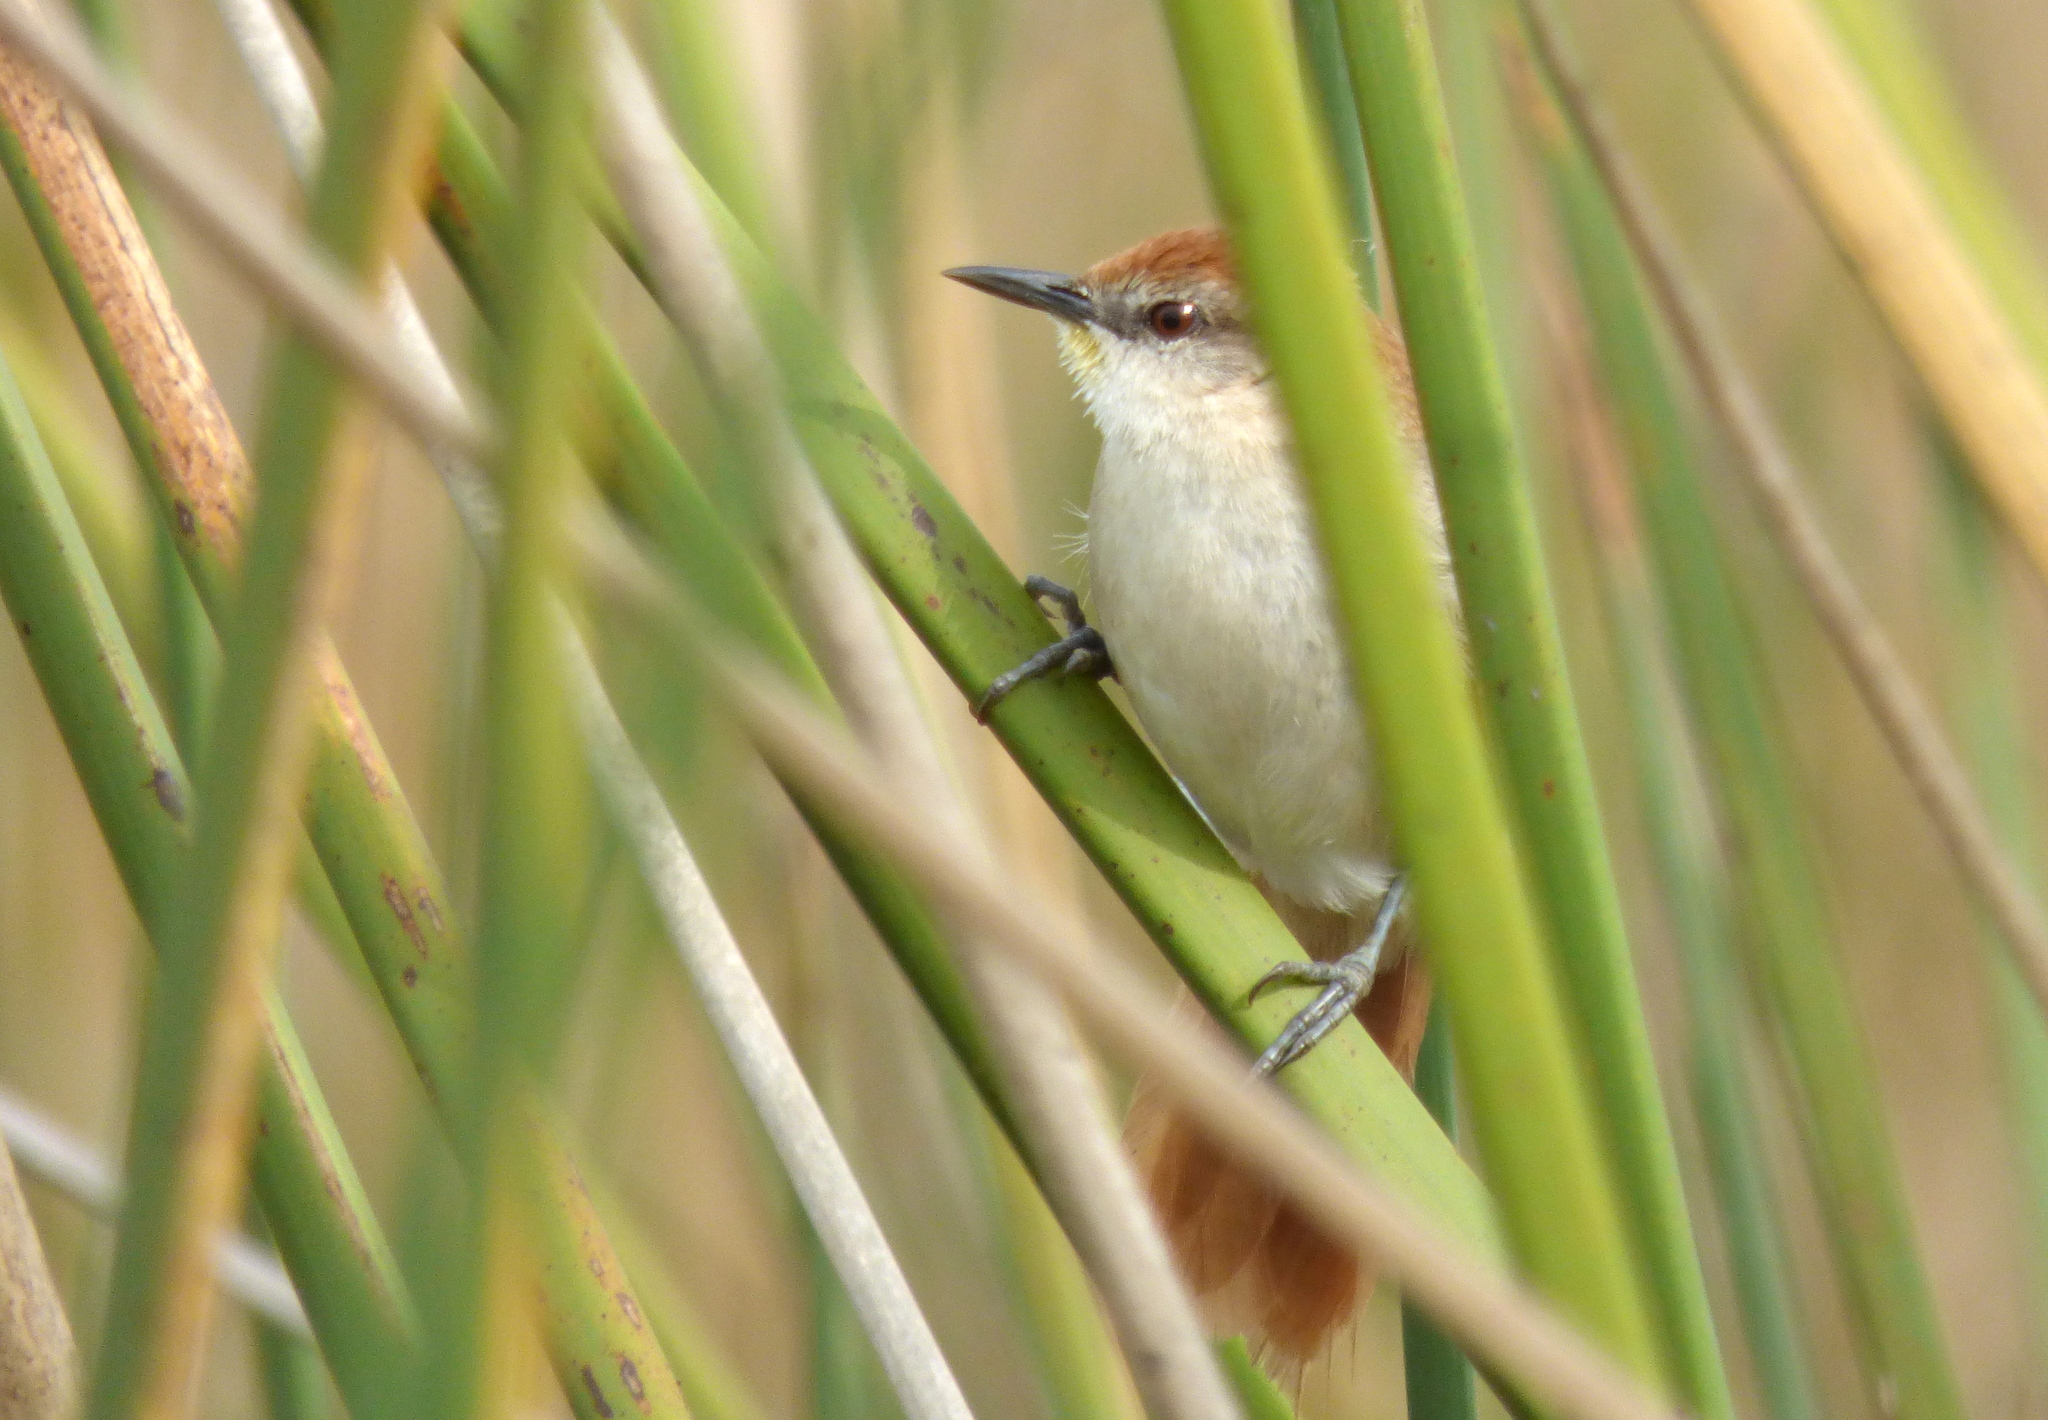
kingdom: Animalia
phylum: Chordata
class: Aves
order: Passeriformes
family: Furnariidae
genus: Certhiaxis
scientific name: Certhiaxis cinnamomeus
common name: Yellow-chinned spinetail
